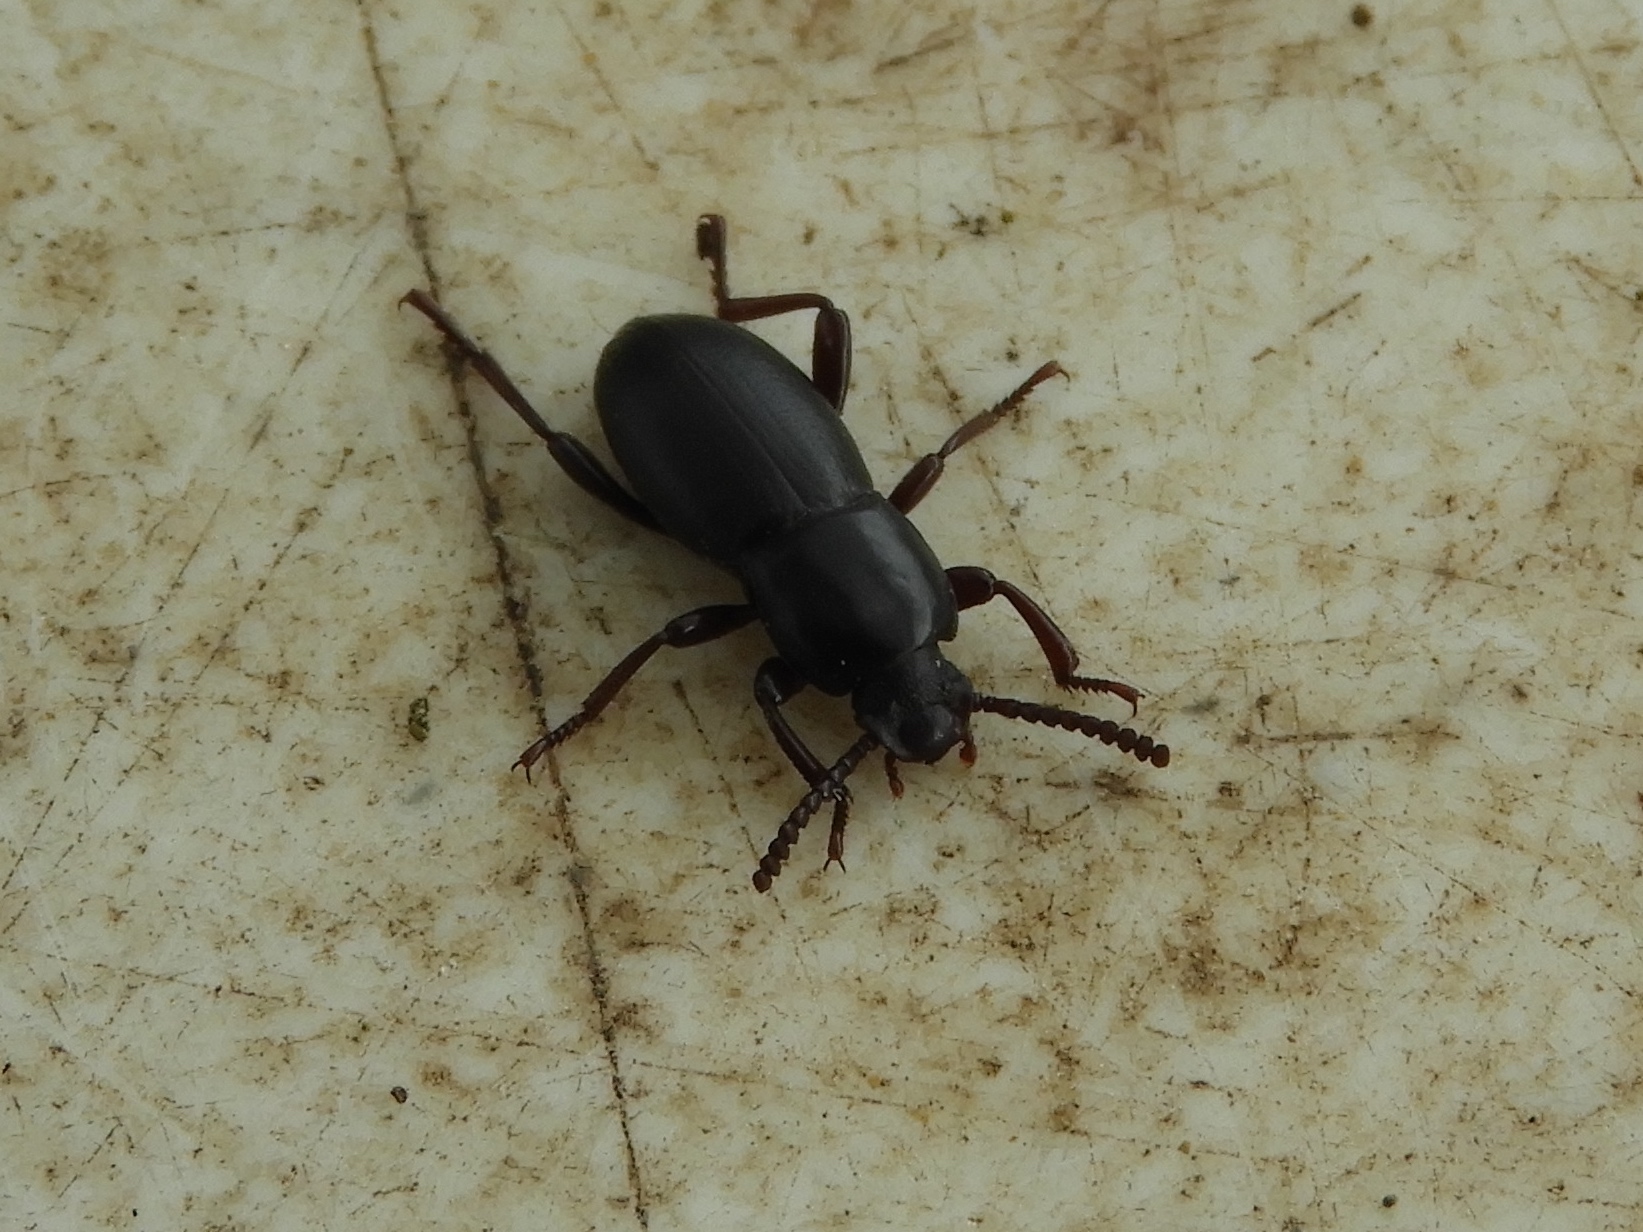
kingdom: Animalia
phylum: Arthropoda
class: Insecta
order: Coleoptera
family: Tenebrionidae
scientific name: Tenebrionidae
